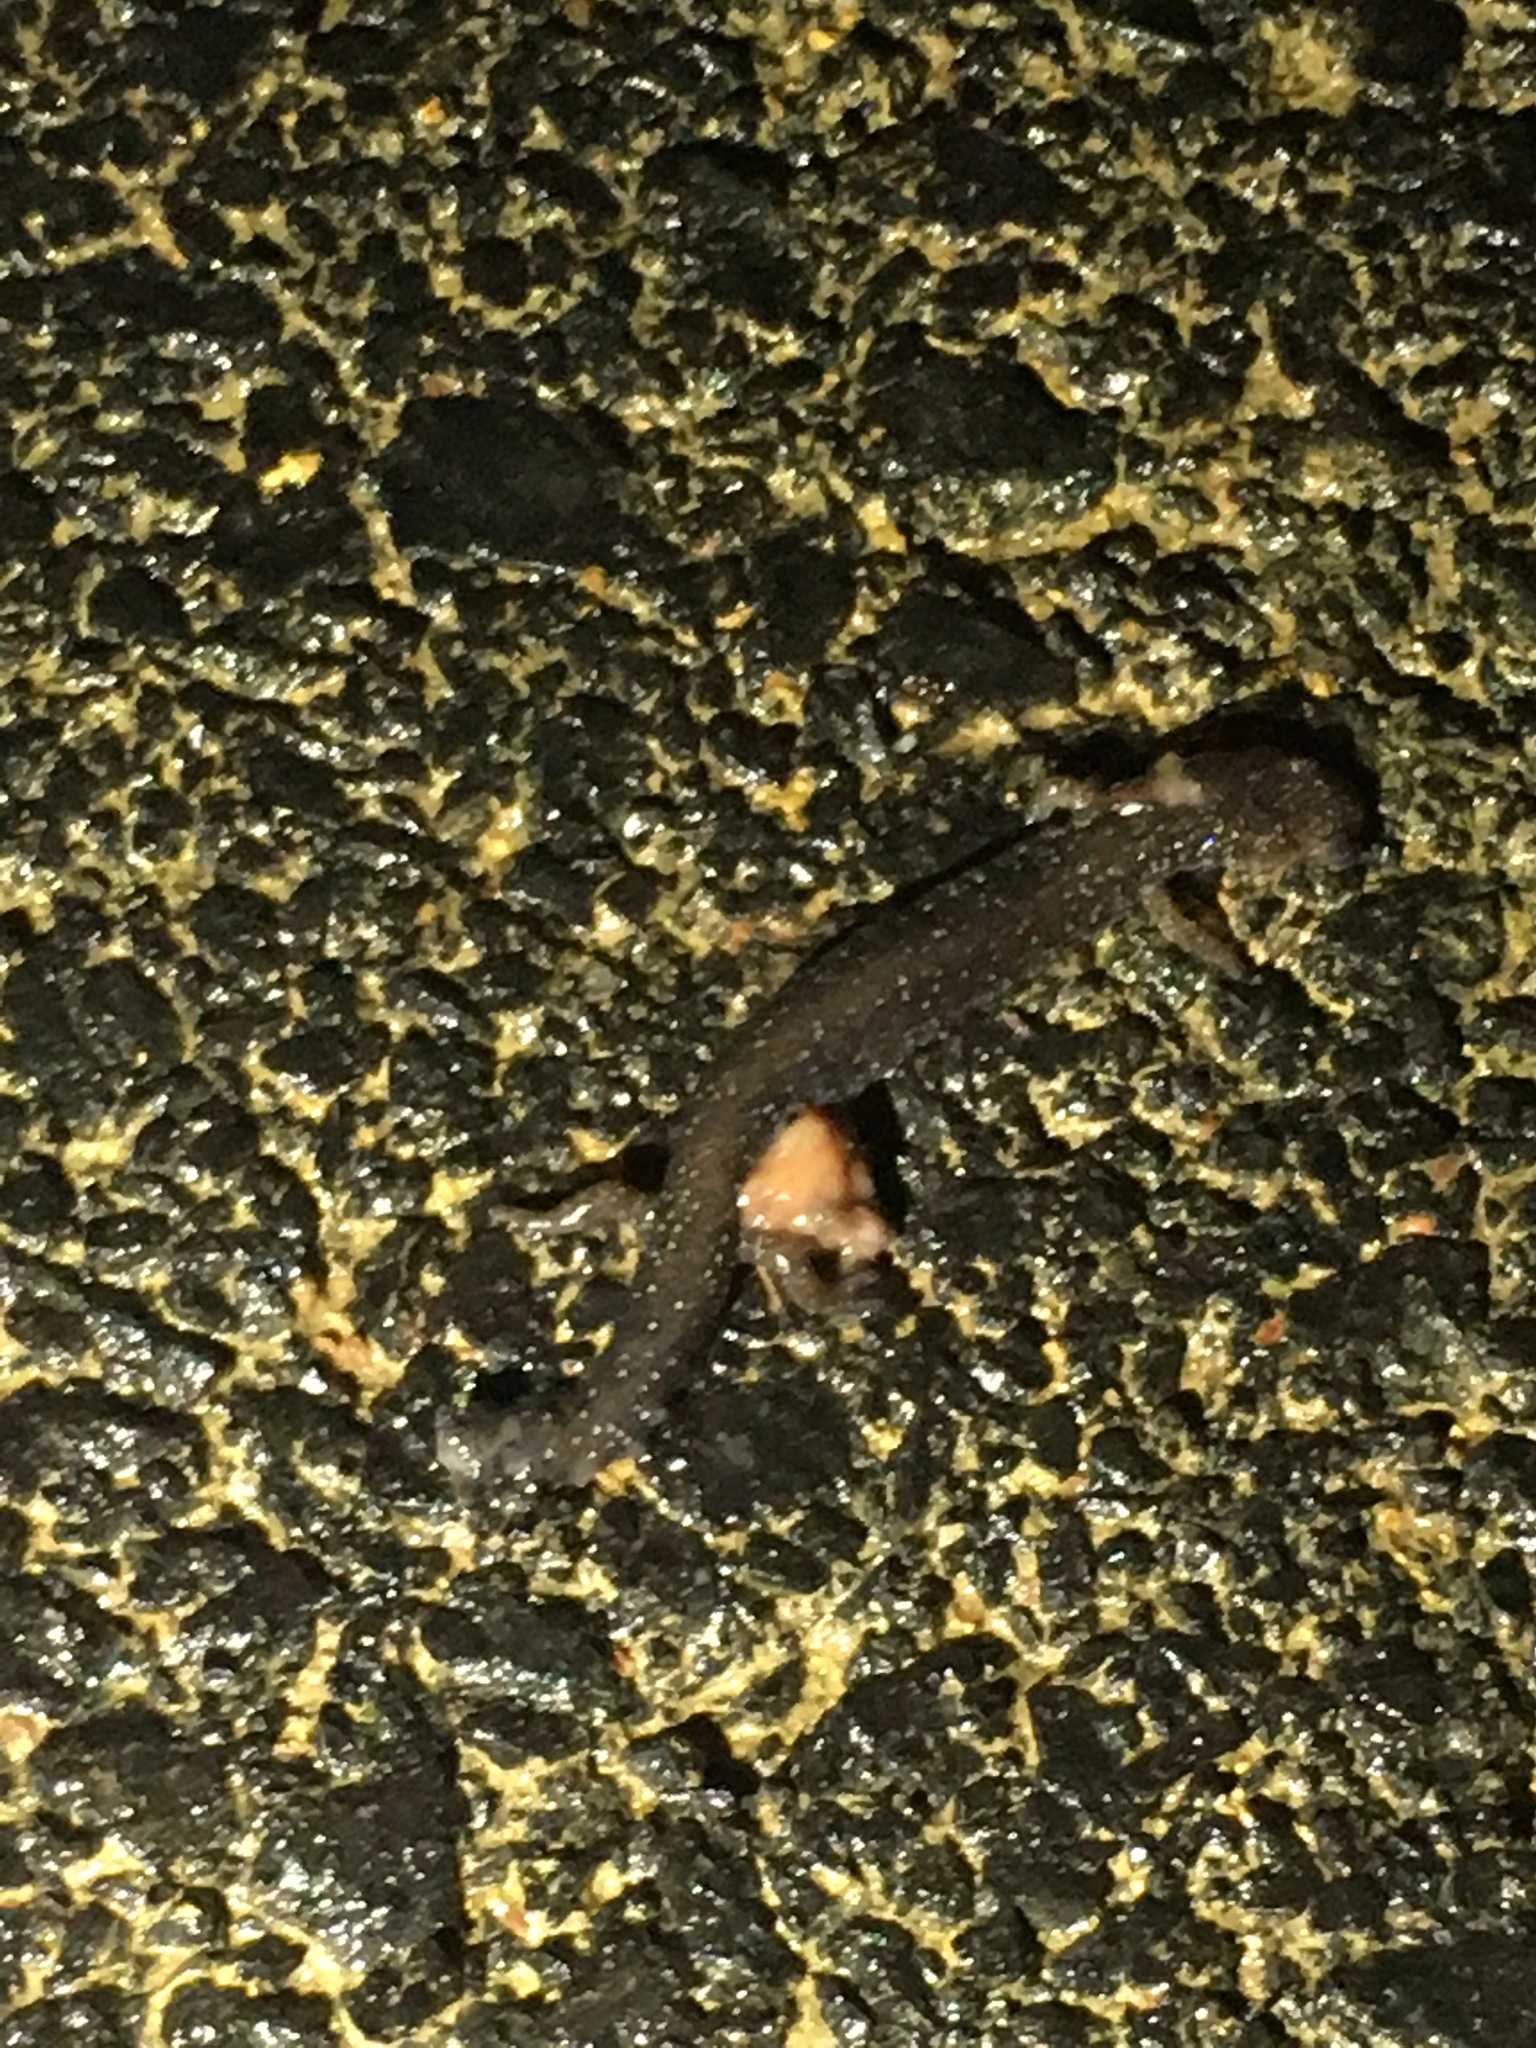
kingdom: Animalia
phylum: Chordata
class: Amphibia
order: Caudata
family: Plethodontidae
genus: Plethodon
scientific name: Plethodon cinereus
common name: Redback salamander
